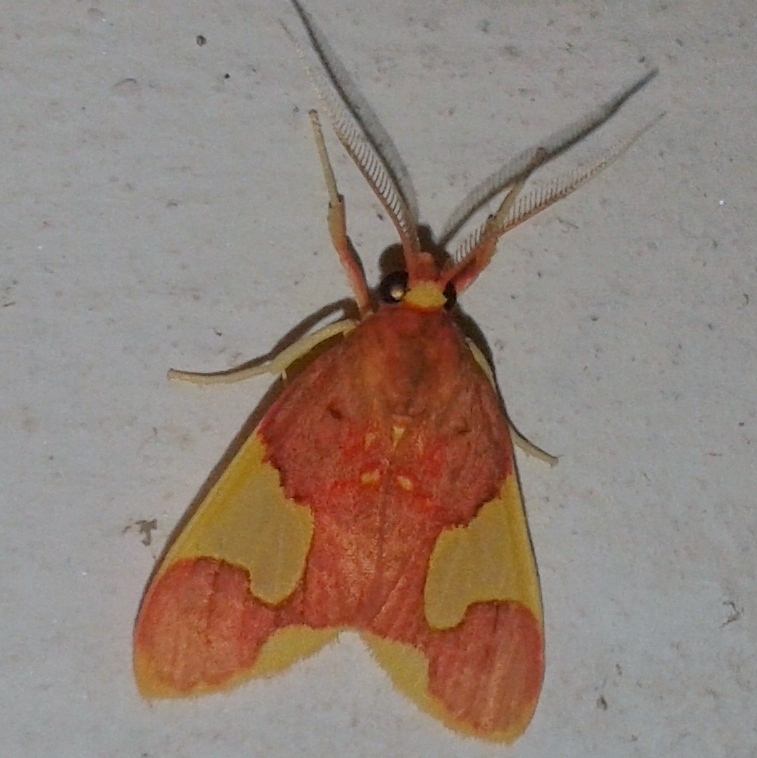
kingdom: Animalia
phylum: Arthropoda
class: Insecta
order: Lepidoptera
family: Erebidae
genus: Trichromia
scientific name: Trichromia
